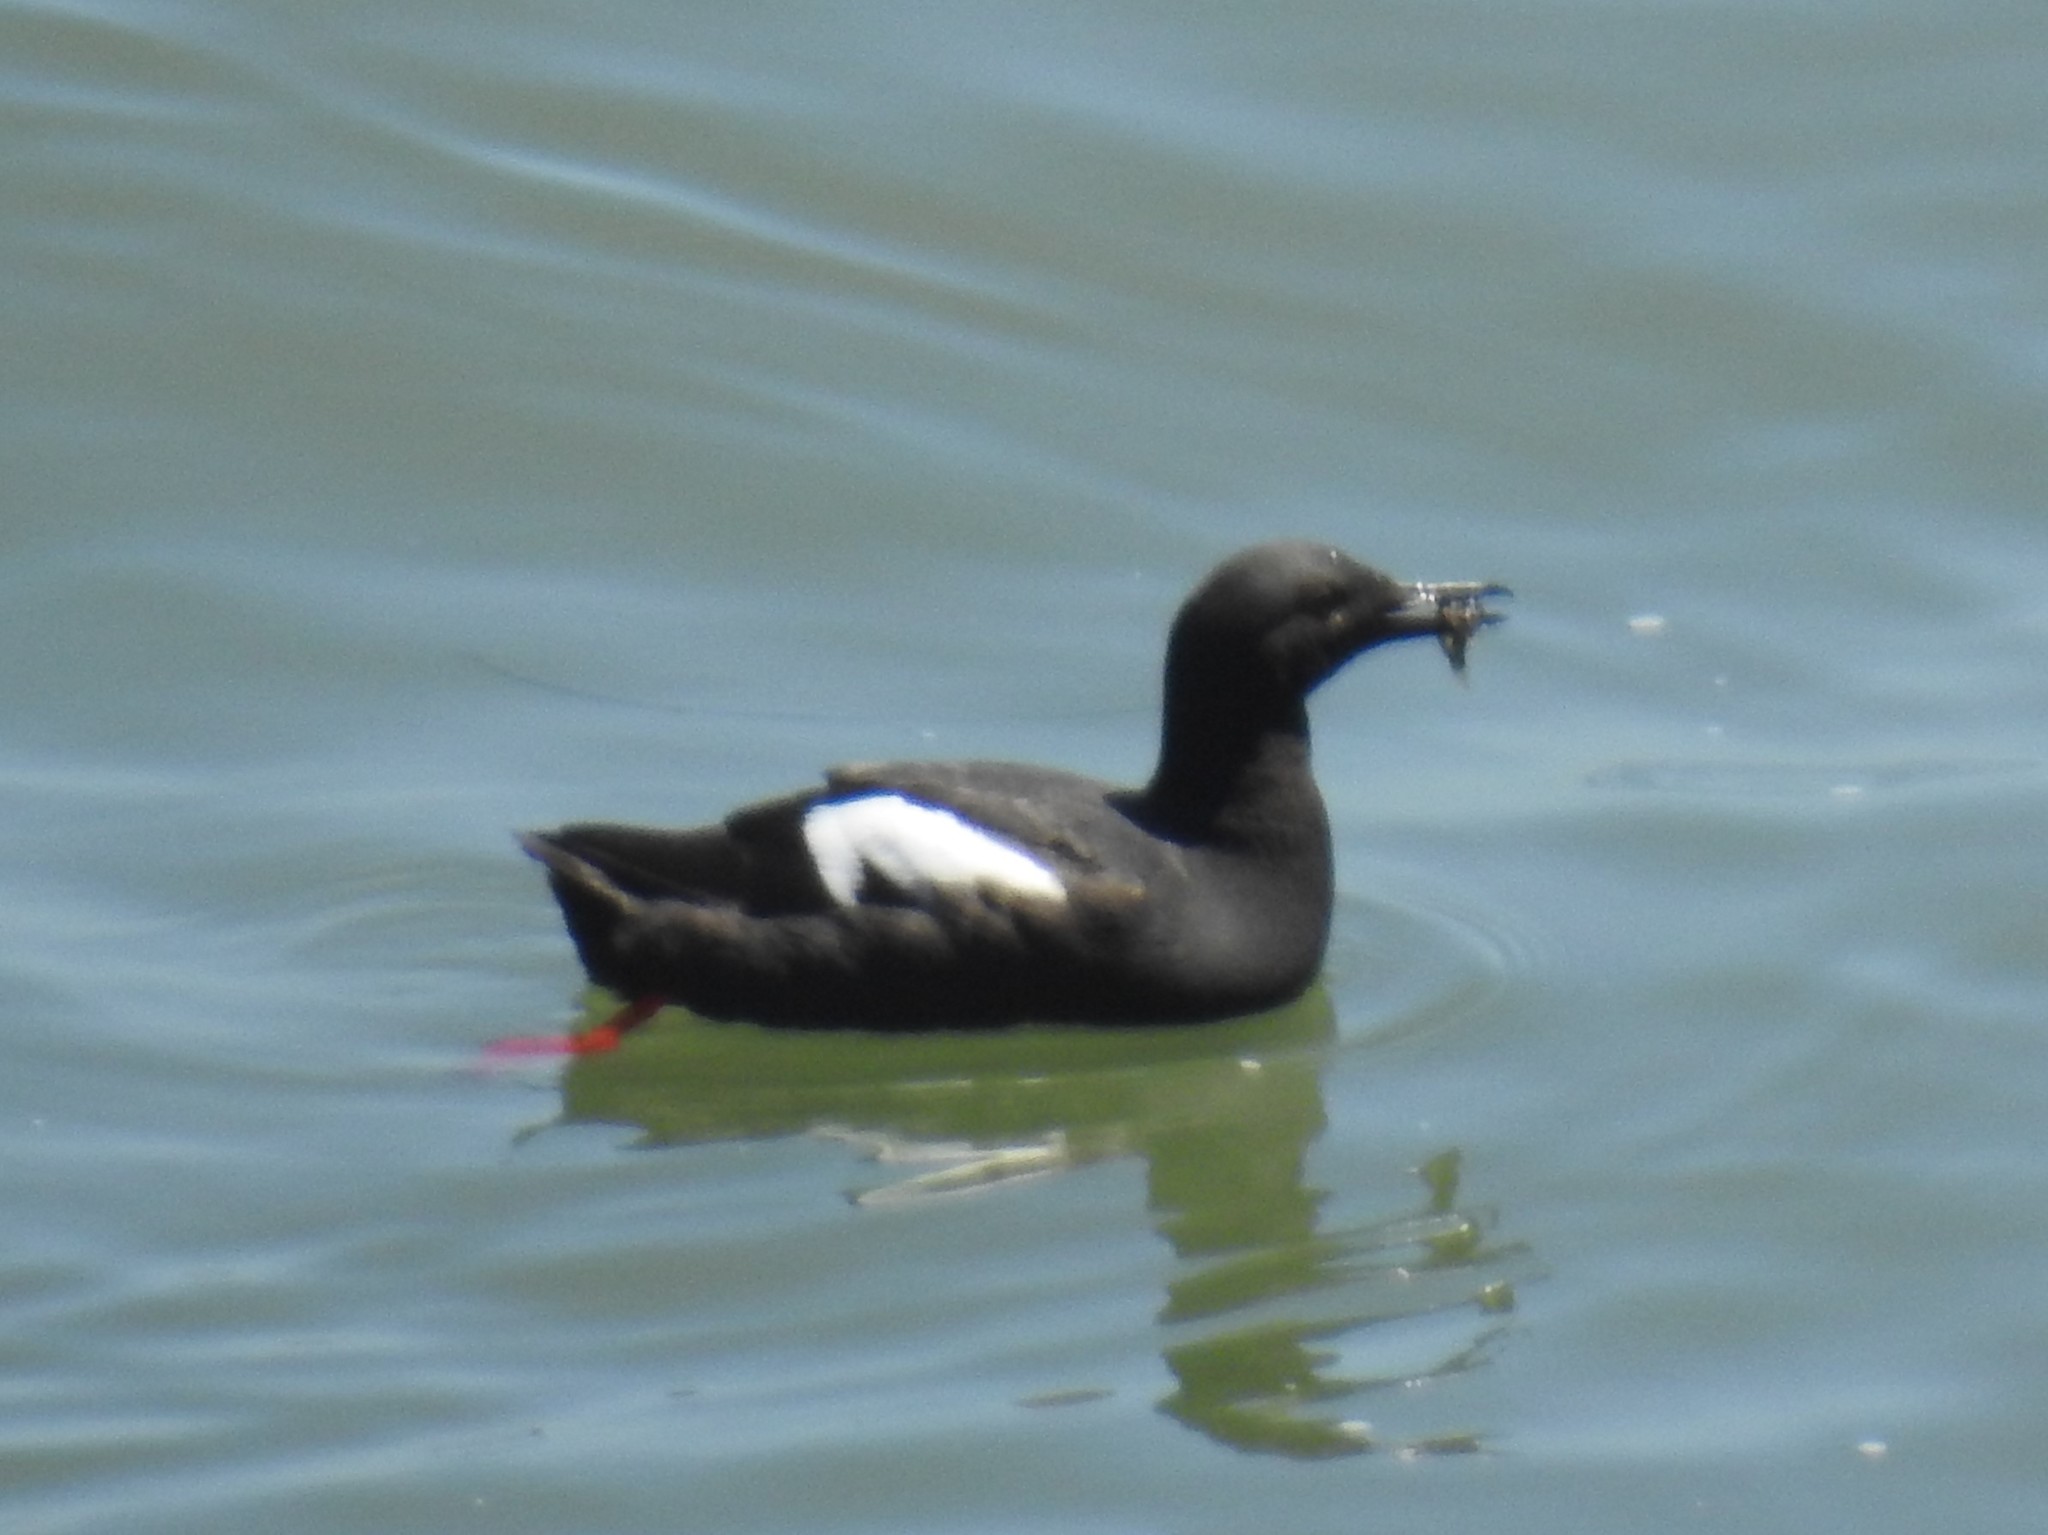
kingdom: Animalia
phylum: Chordata
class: Aves
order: Charadriiformes
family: Alcidae
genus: Cepphus
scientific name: Cepphus columba
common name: Pigeon guillemot
